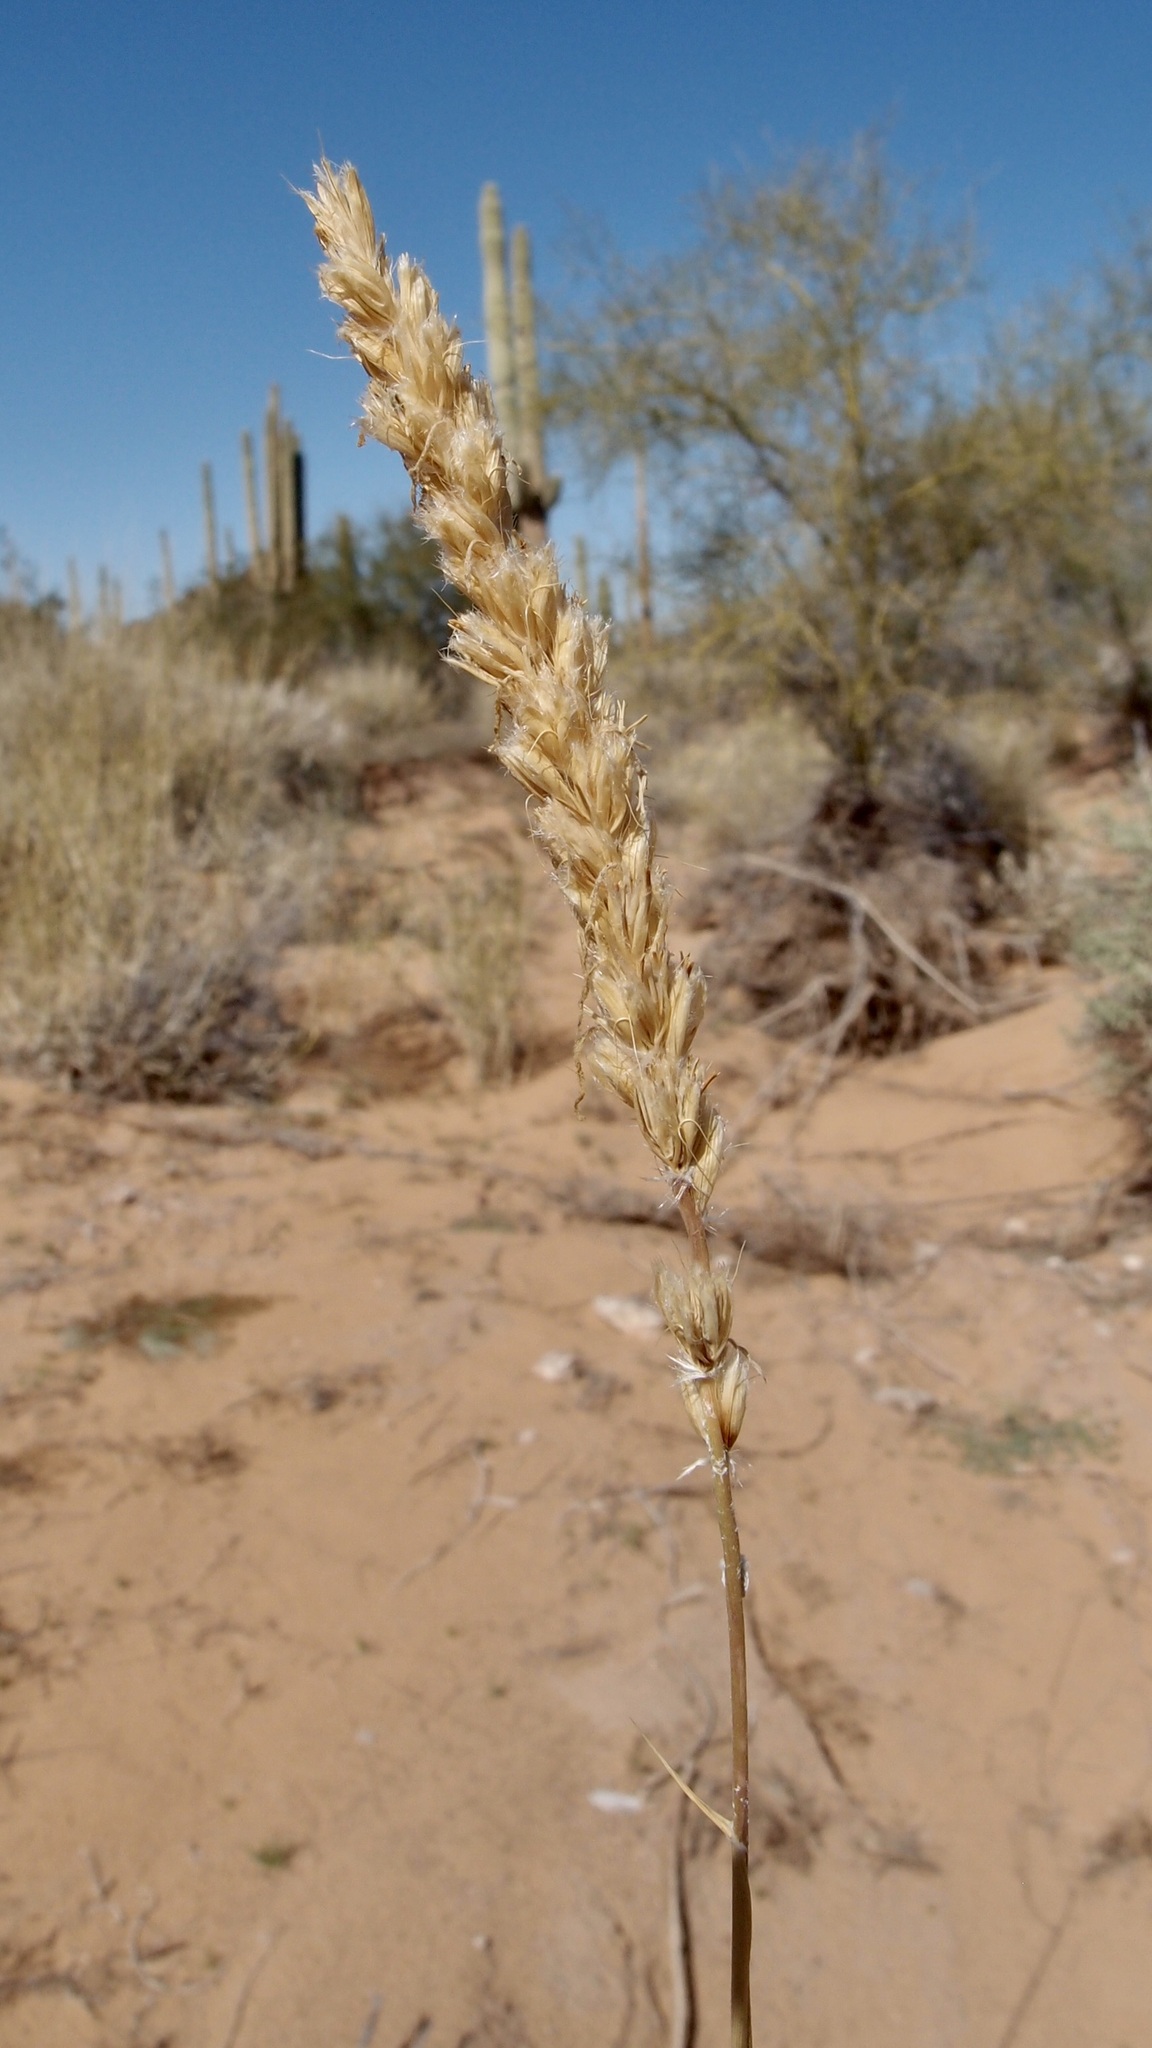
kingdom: Plantae
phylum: Tracheophyta
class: Liliopsida
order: Poales
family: Poaceae
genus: Hilaria
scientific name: Hilaria rigida
